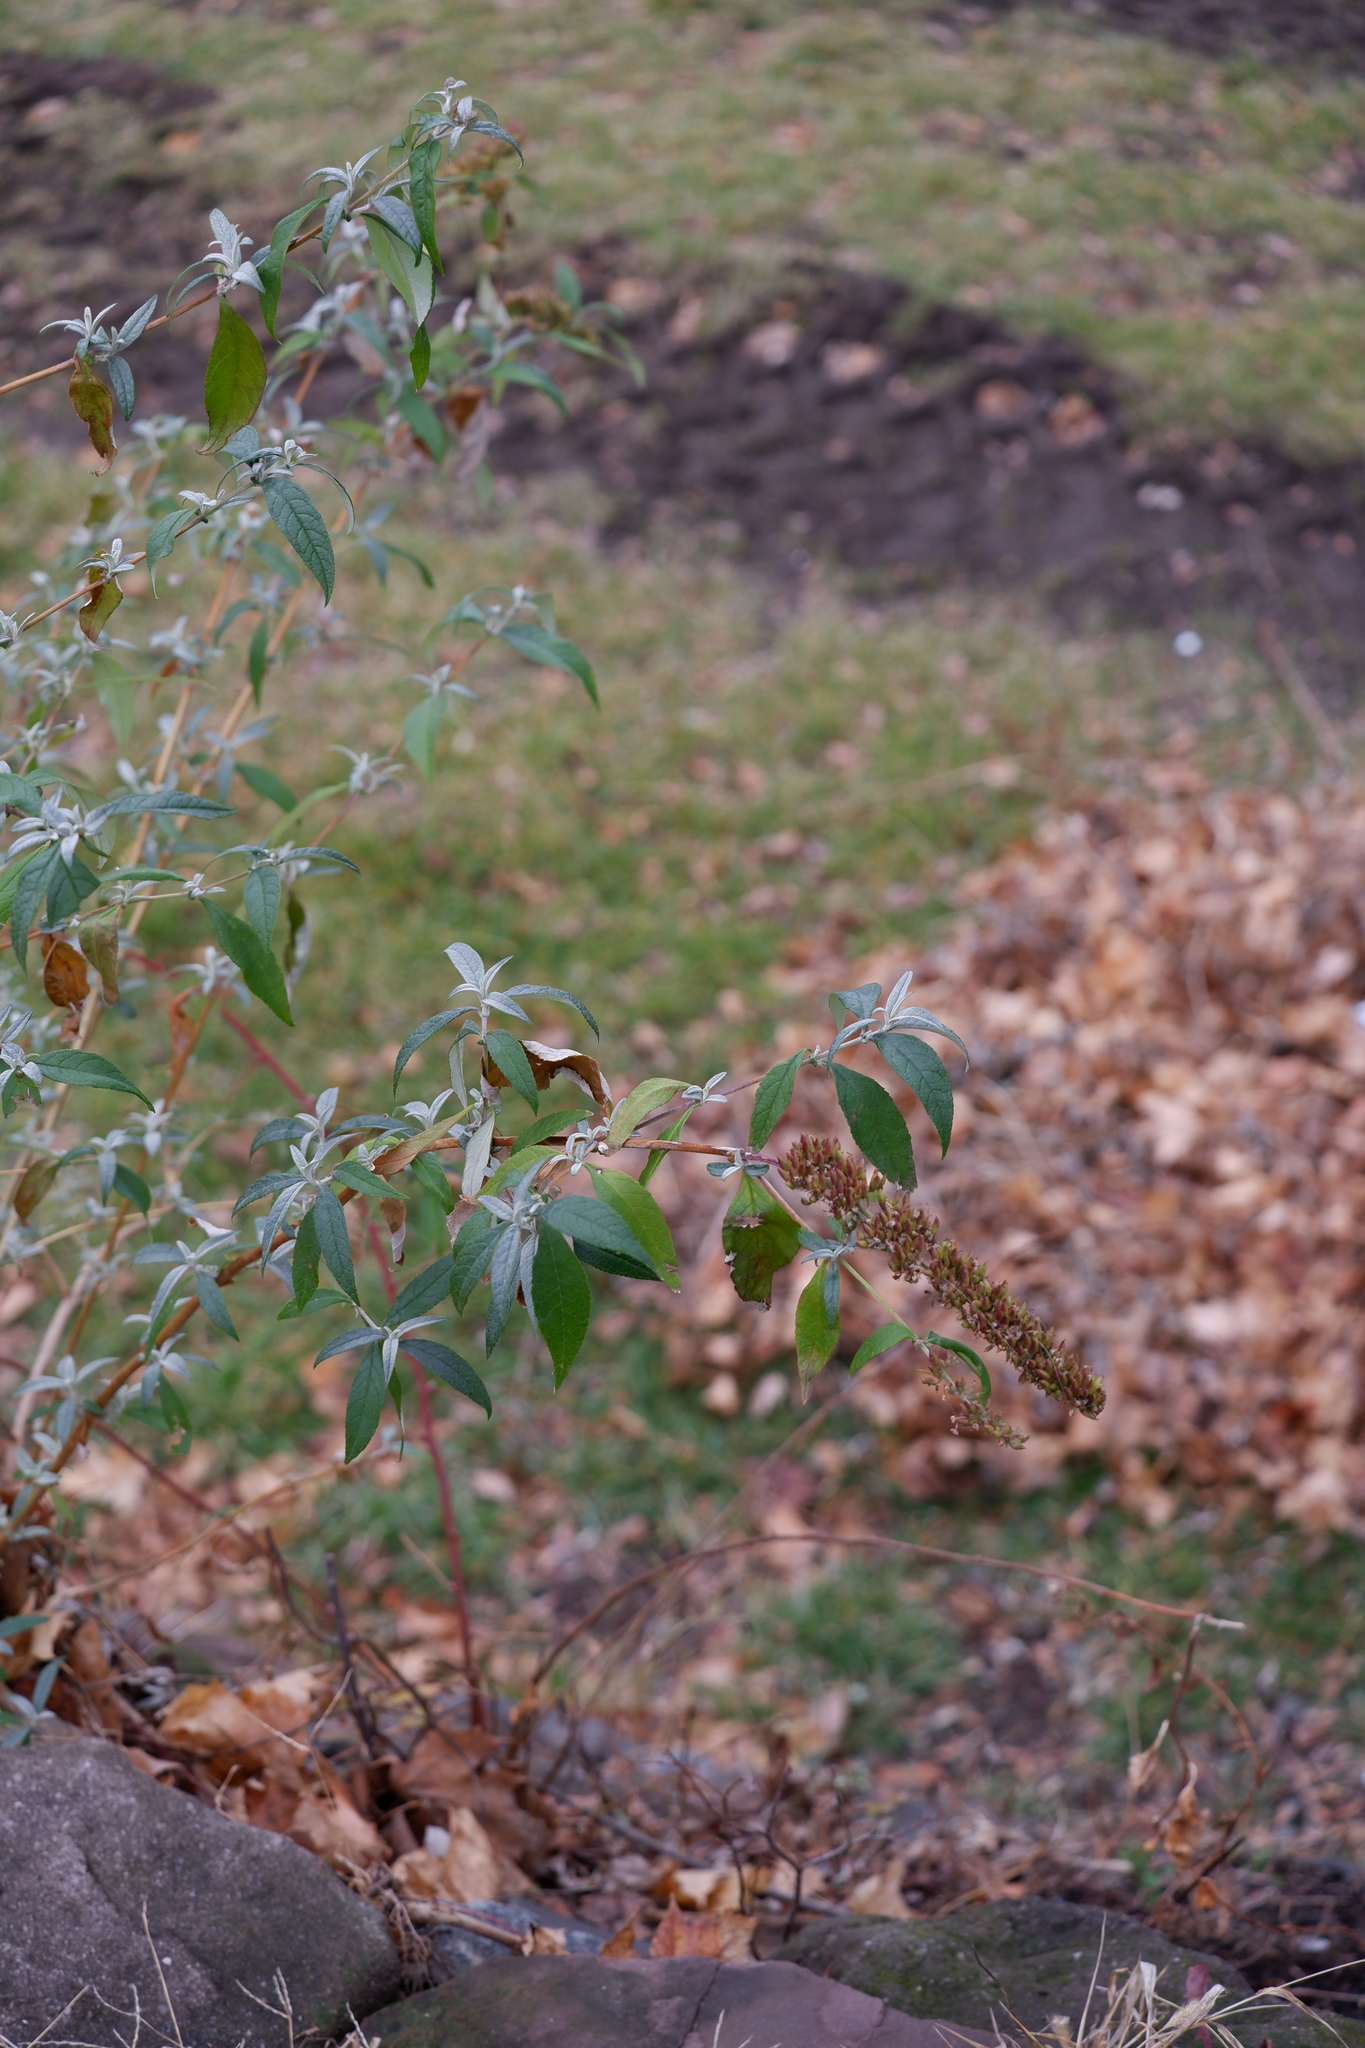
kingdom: Plantae
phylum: Tracheophyta
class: Magnoliopsida
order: Lamiales
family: Scrophulariaceae
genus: Buddleja
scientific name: Buddleja davidii
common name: Butterfly-bush
